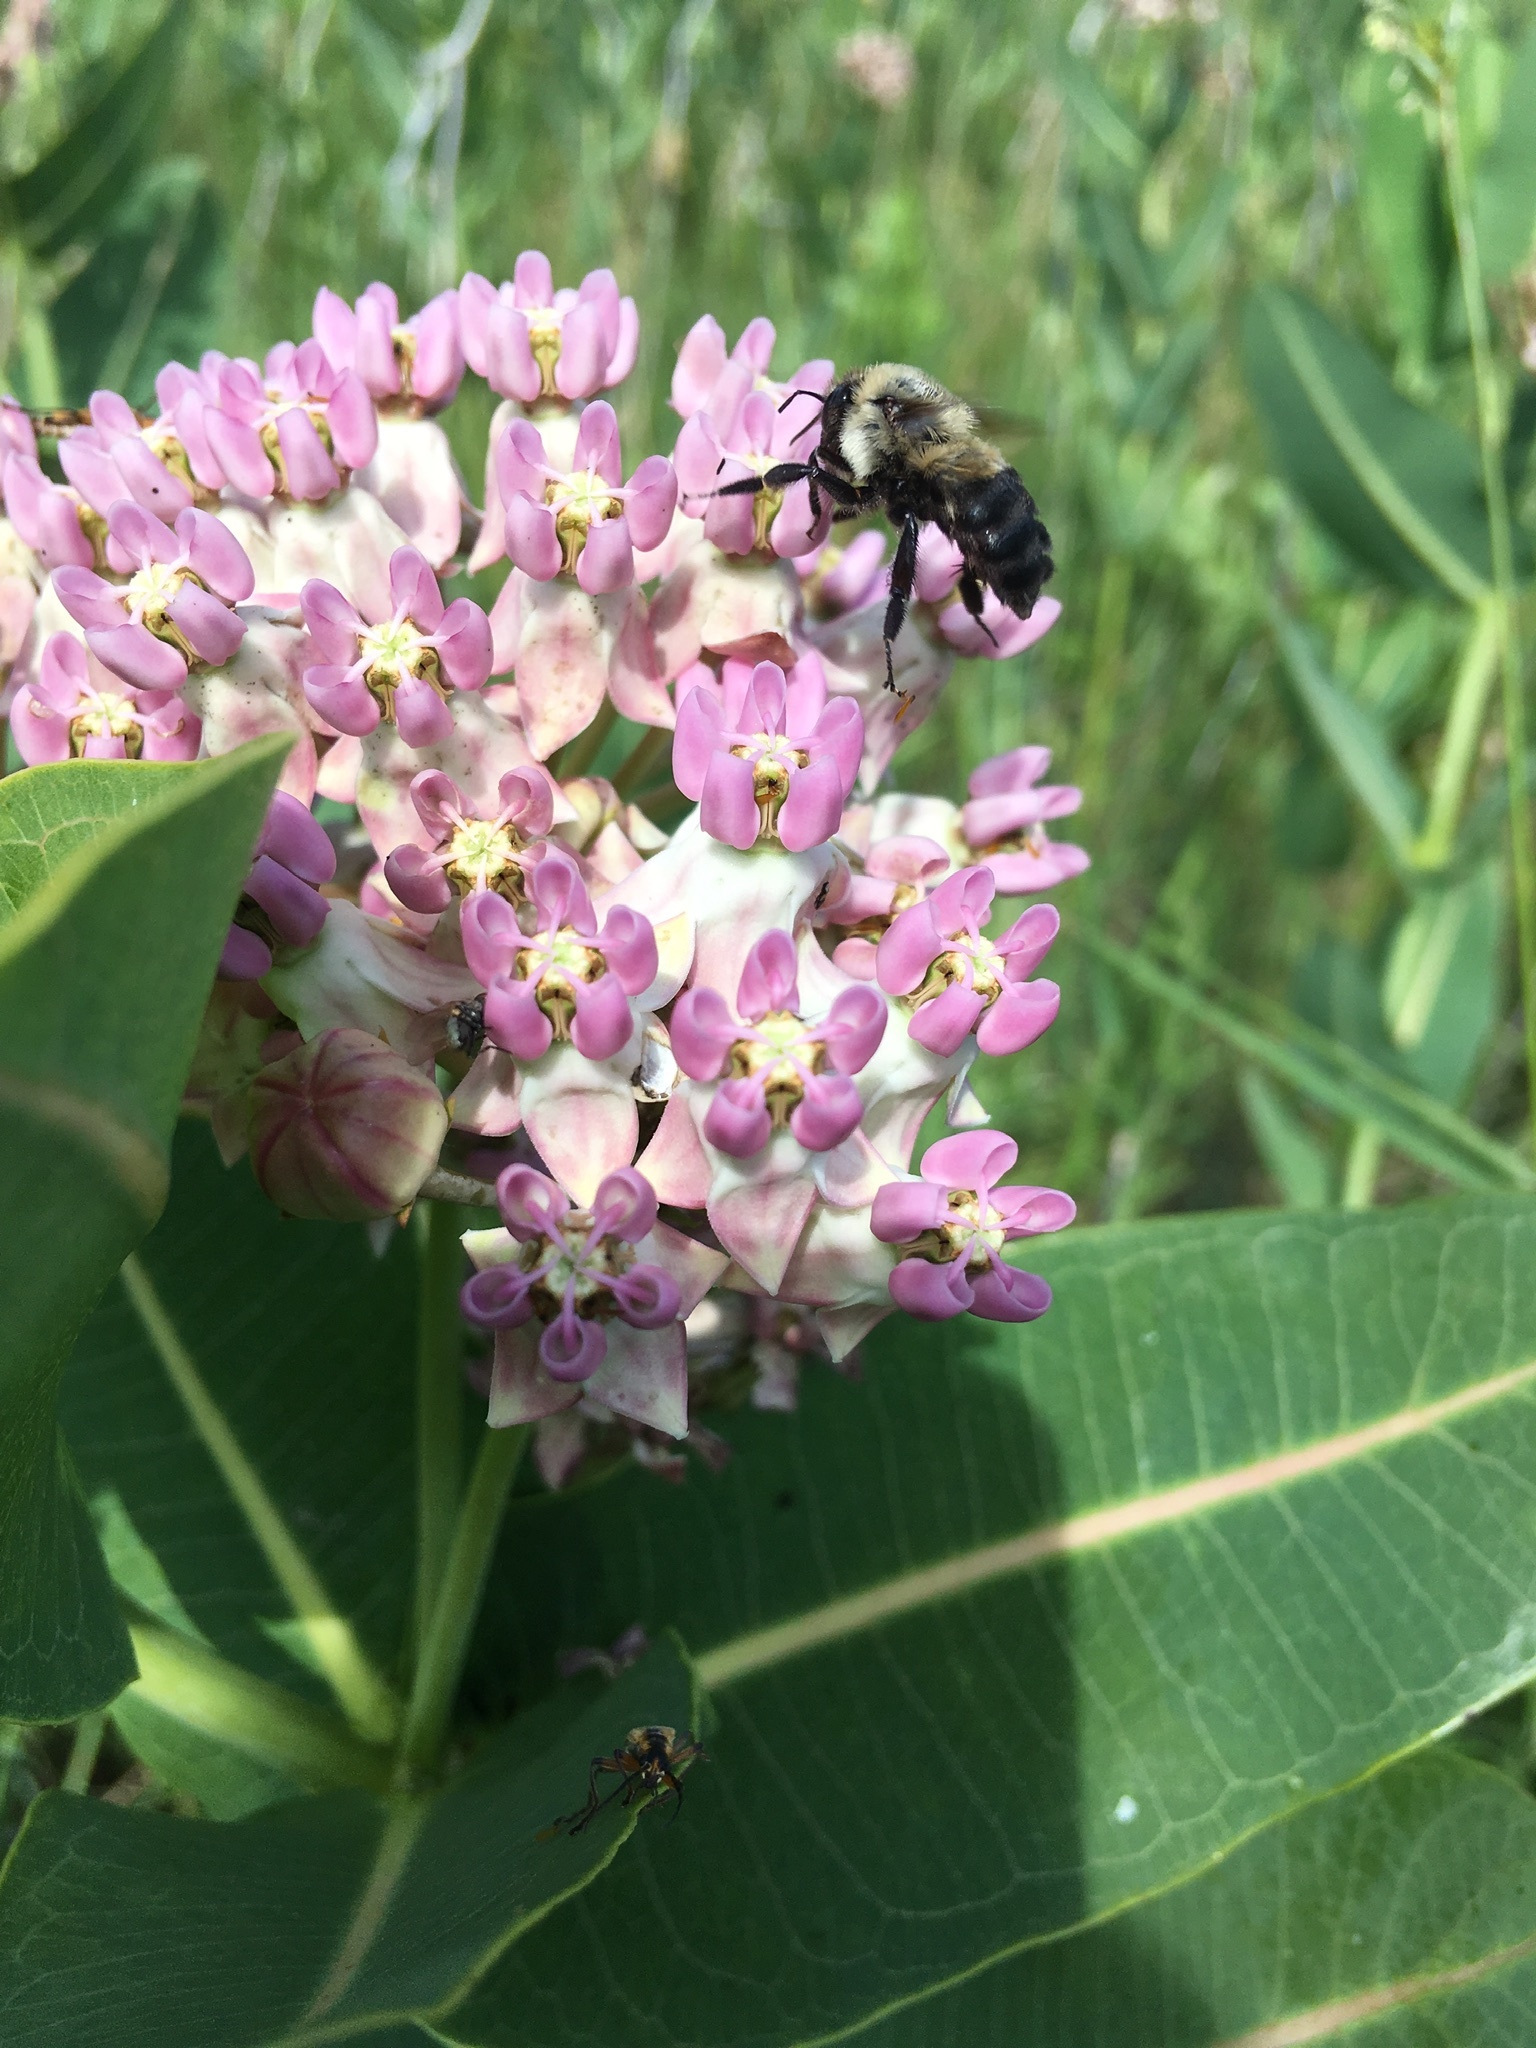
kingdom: Animalia
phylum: Arthropoda
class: Insecta
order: Hymenoptera
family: Apidae
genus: Bombus
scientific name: Bombus griseocollis
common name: Brown-belted bumble bee
